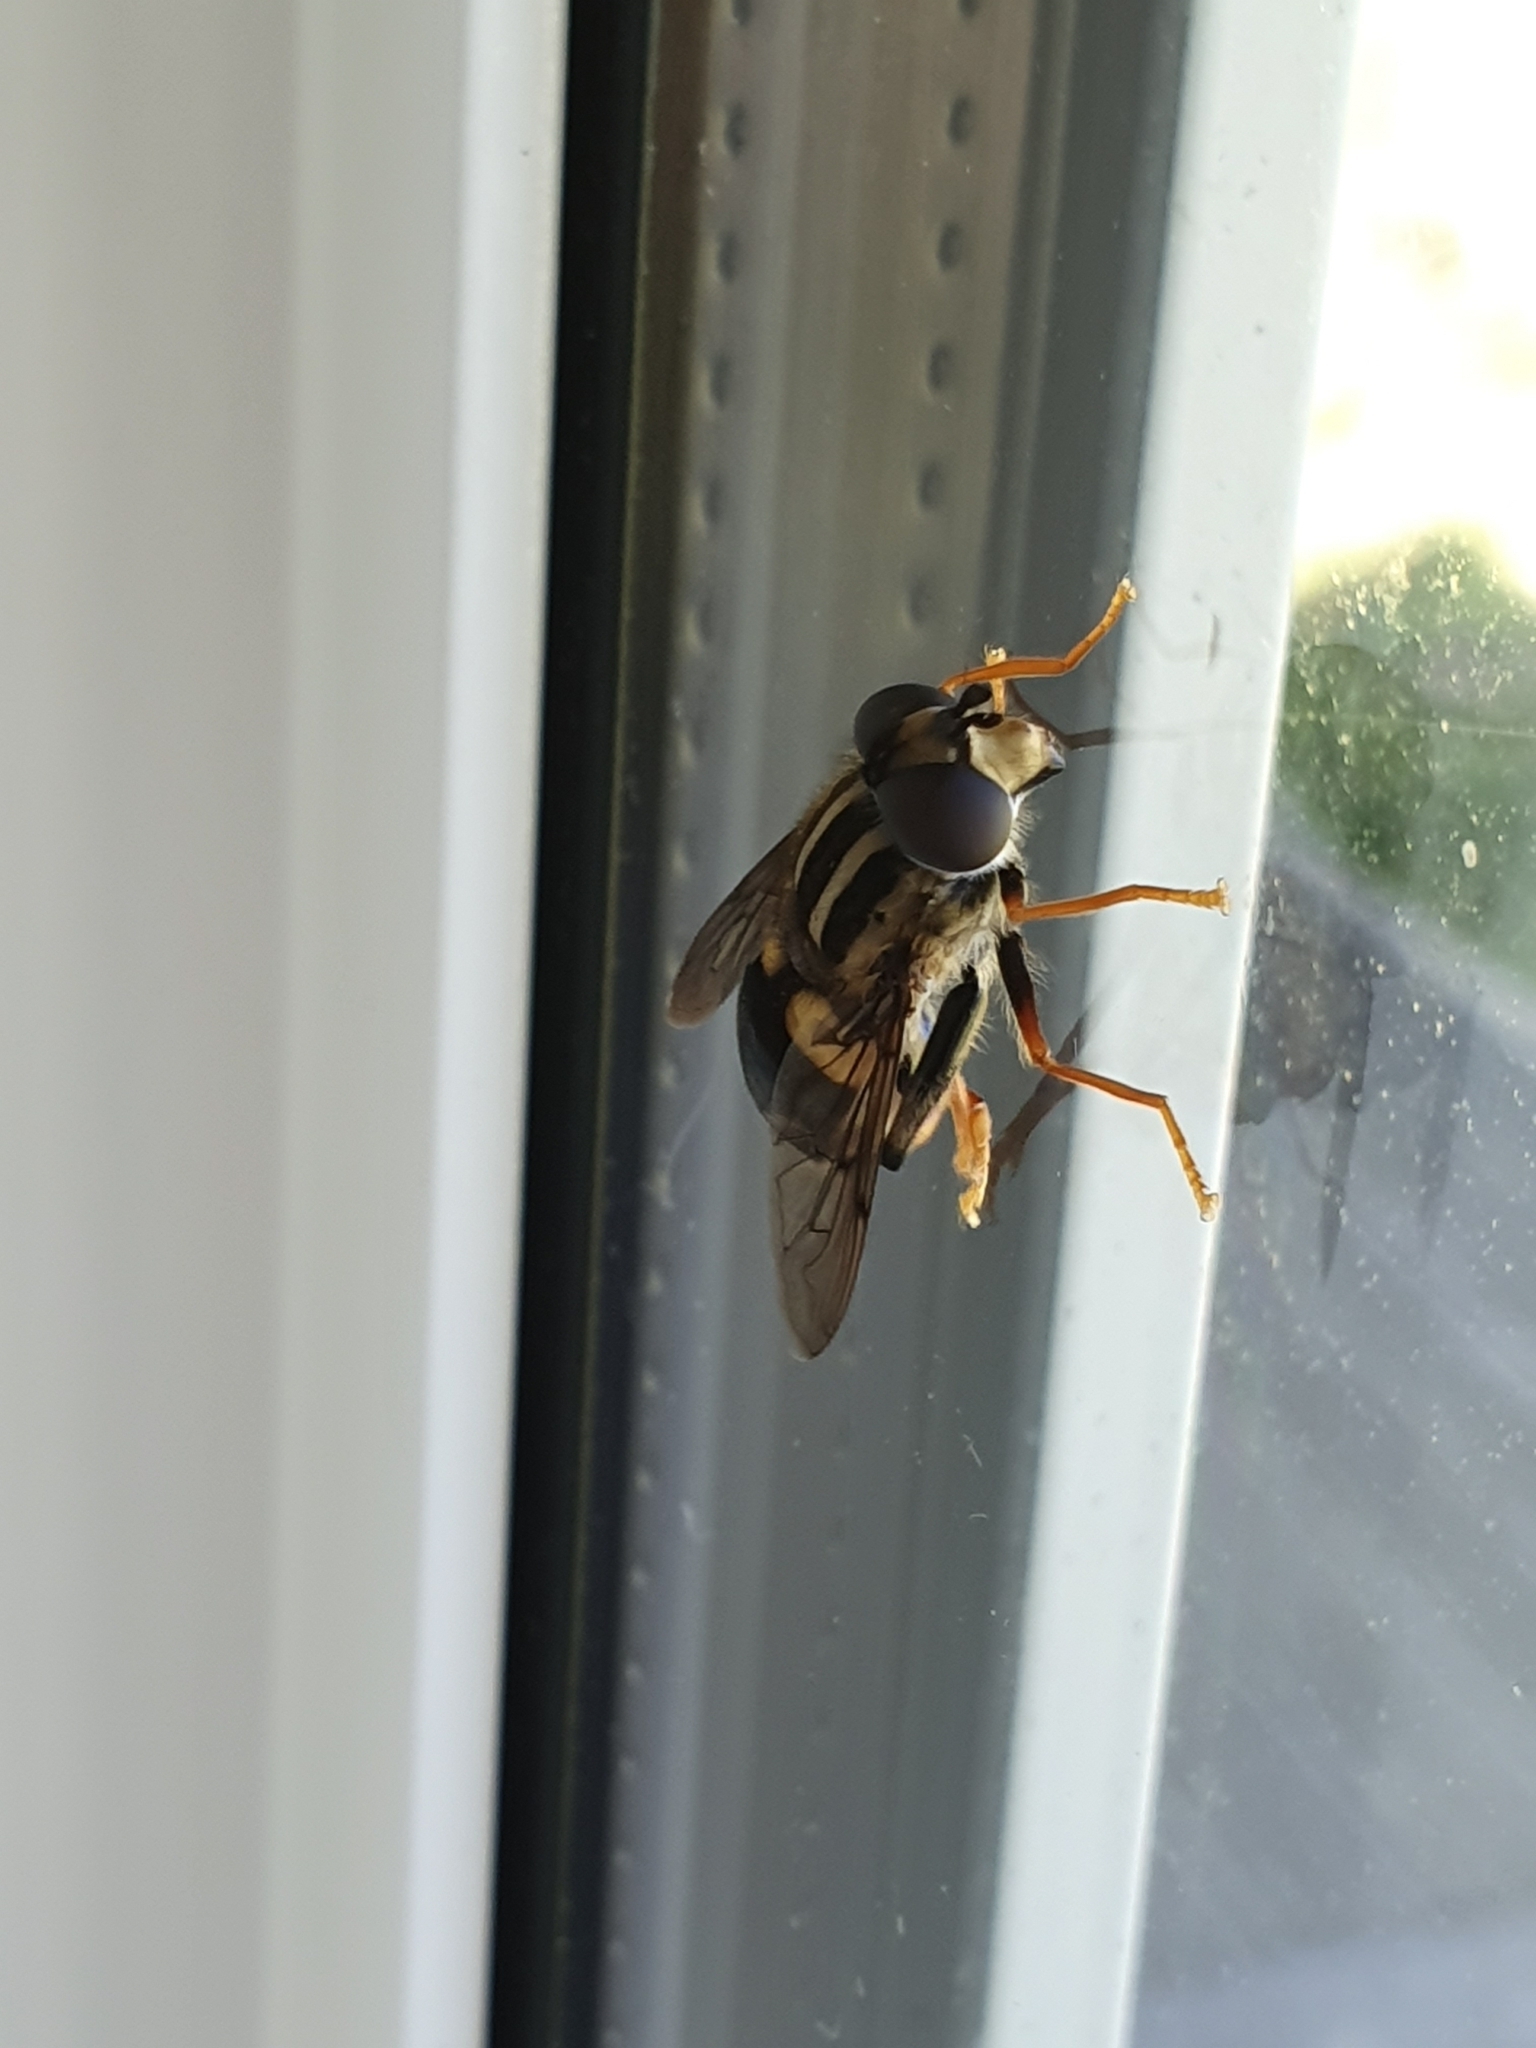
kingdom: Animalia
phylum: Arthropoda
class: Insecta
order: Diptera
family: Syrphidae
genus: Helophilus
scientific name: Helophilus seelandicus
